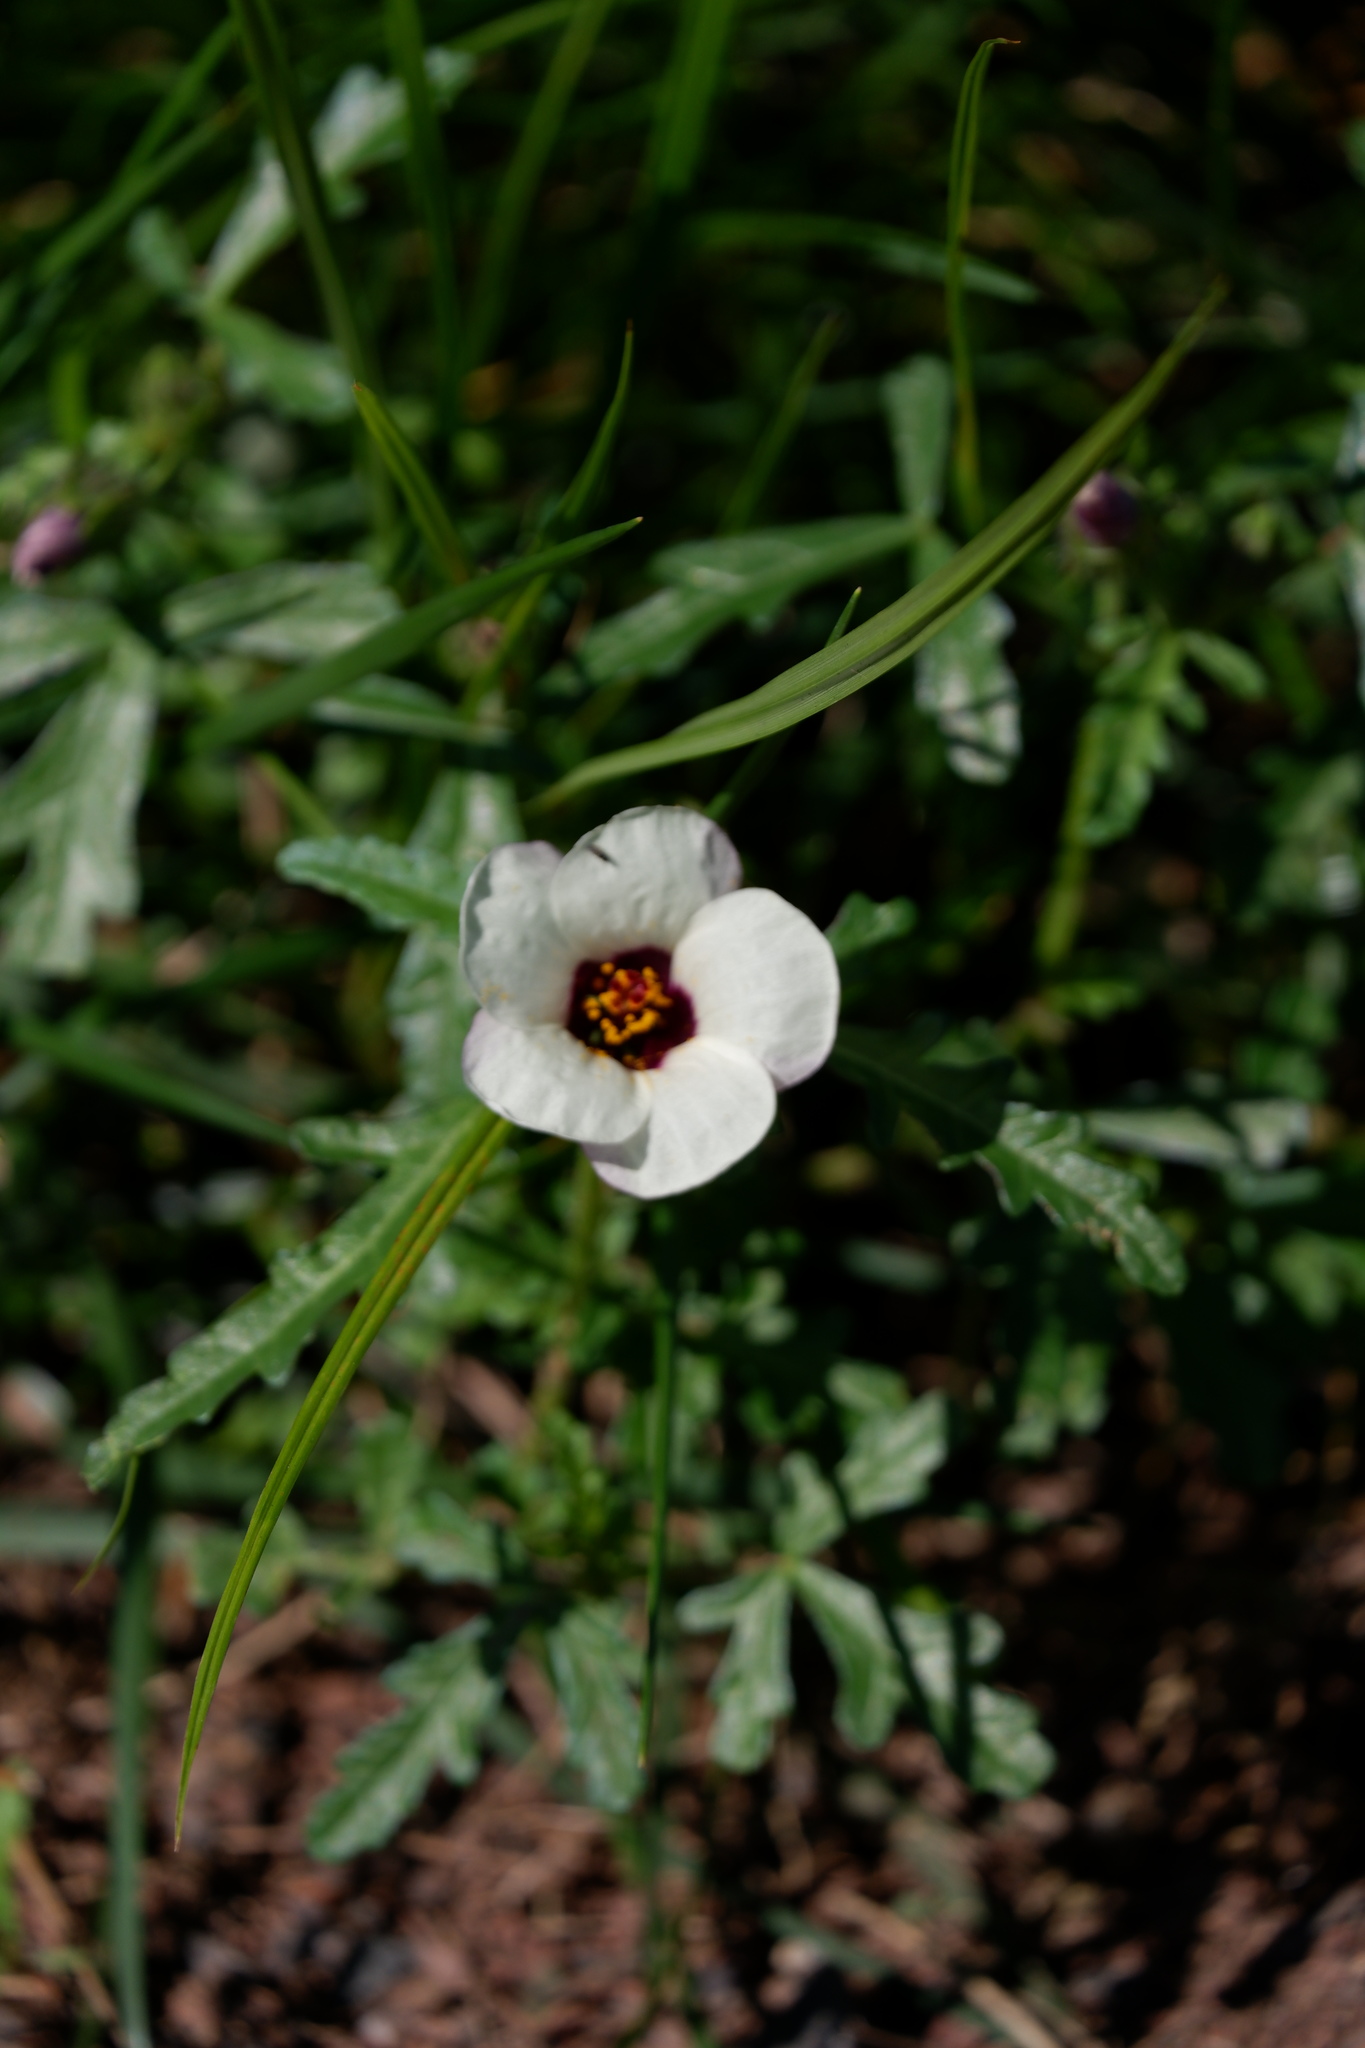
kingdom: Plantae
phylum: Tracheophyta
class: Magnoliopsida
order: Malvales
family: Malvaceae
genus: Hibiscus
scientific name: Hibiscus trionum
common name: Bladder ketmia
